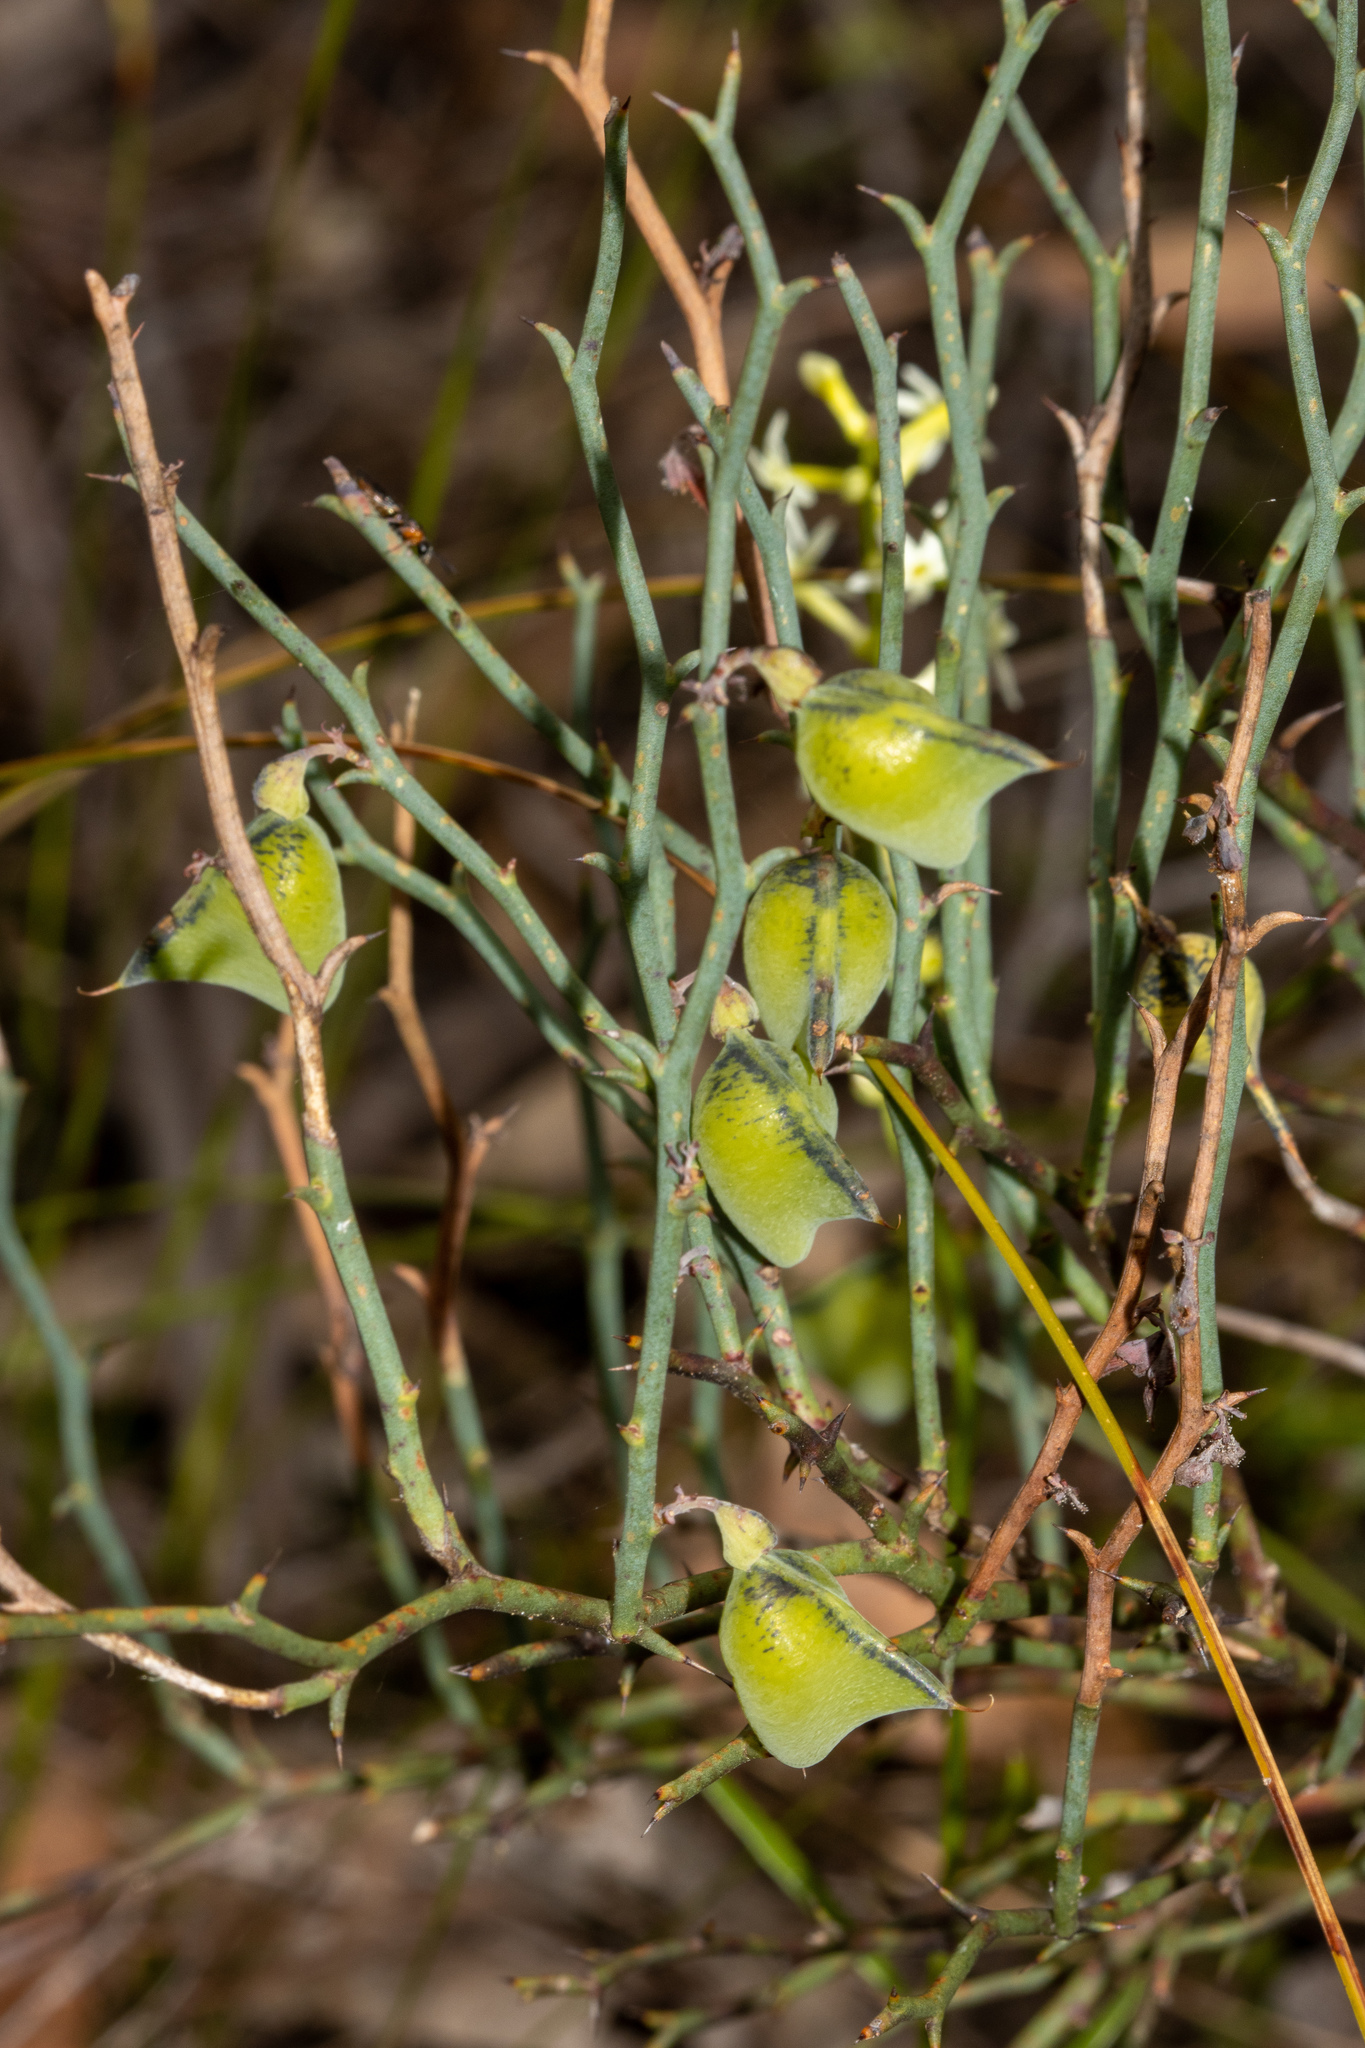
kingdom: Plantae
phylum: Tracheophyta
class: Magnoliopsida
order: Fabales
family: Fabaceae
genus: Daviesia
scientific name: Daviesia brevifolia
